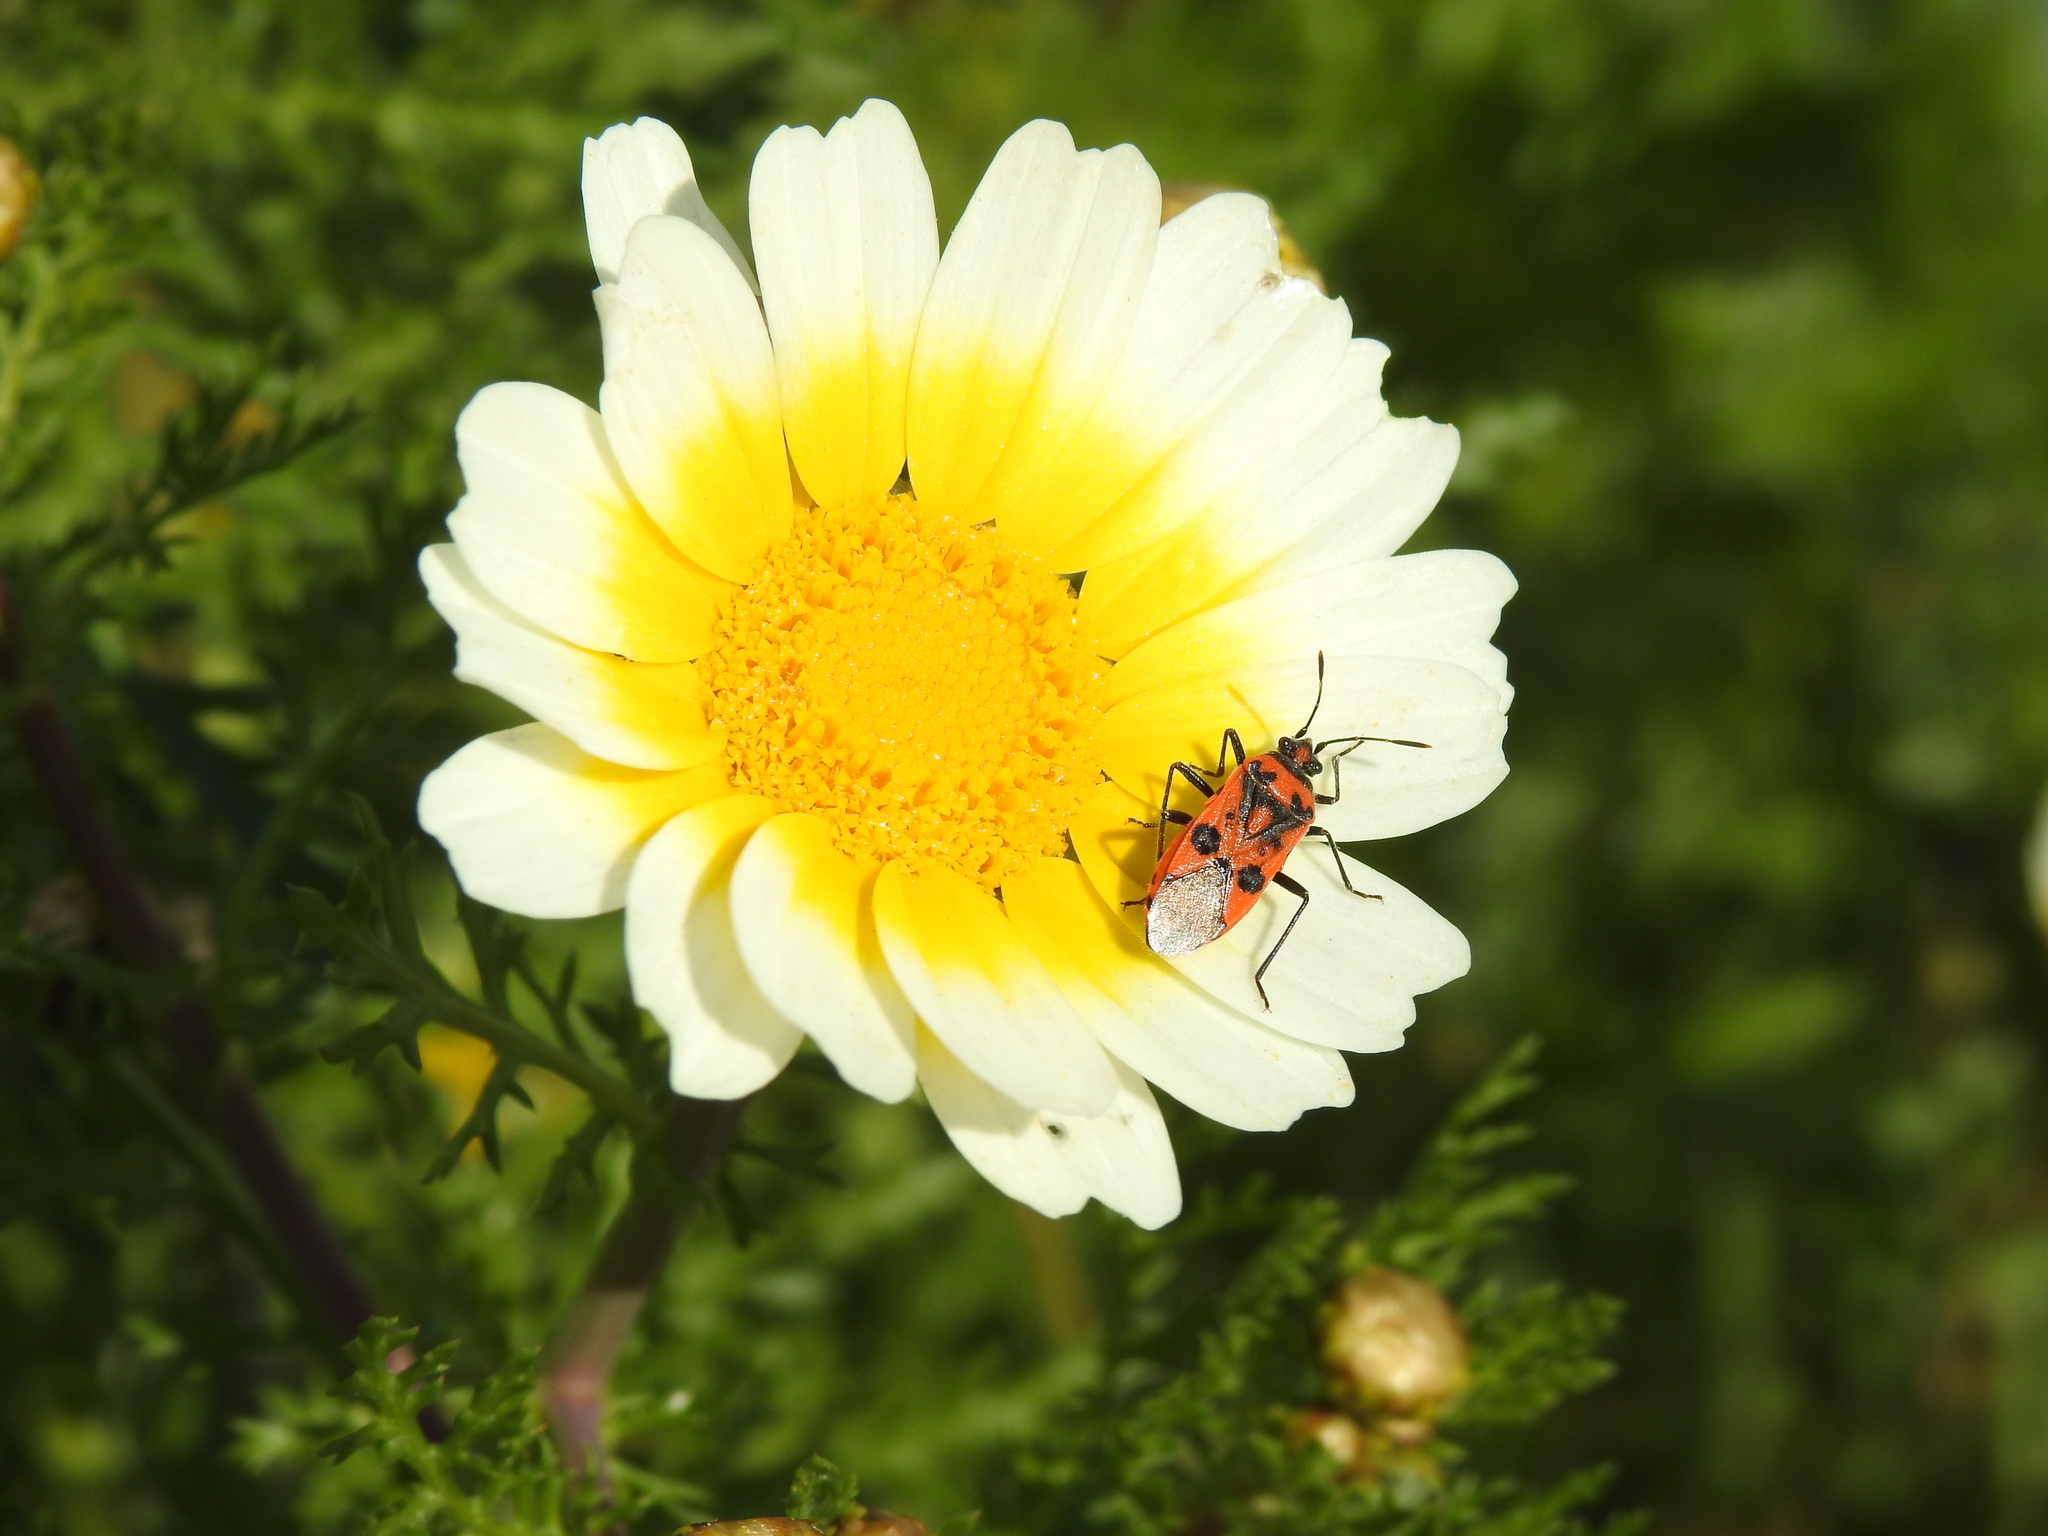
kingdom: Animalia
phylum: Arthropoda
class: Insecta
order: Hemiptera
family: Rhopalidae
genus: Corizus
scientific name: Corizus hyoscyami
